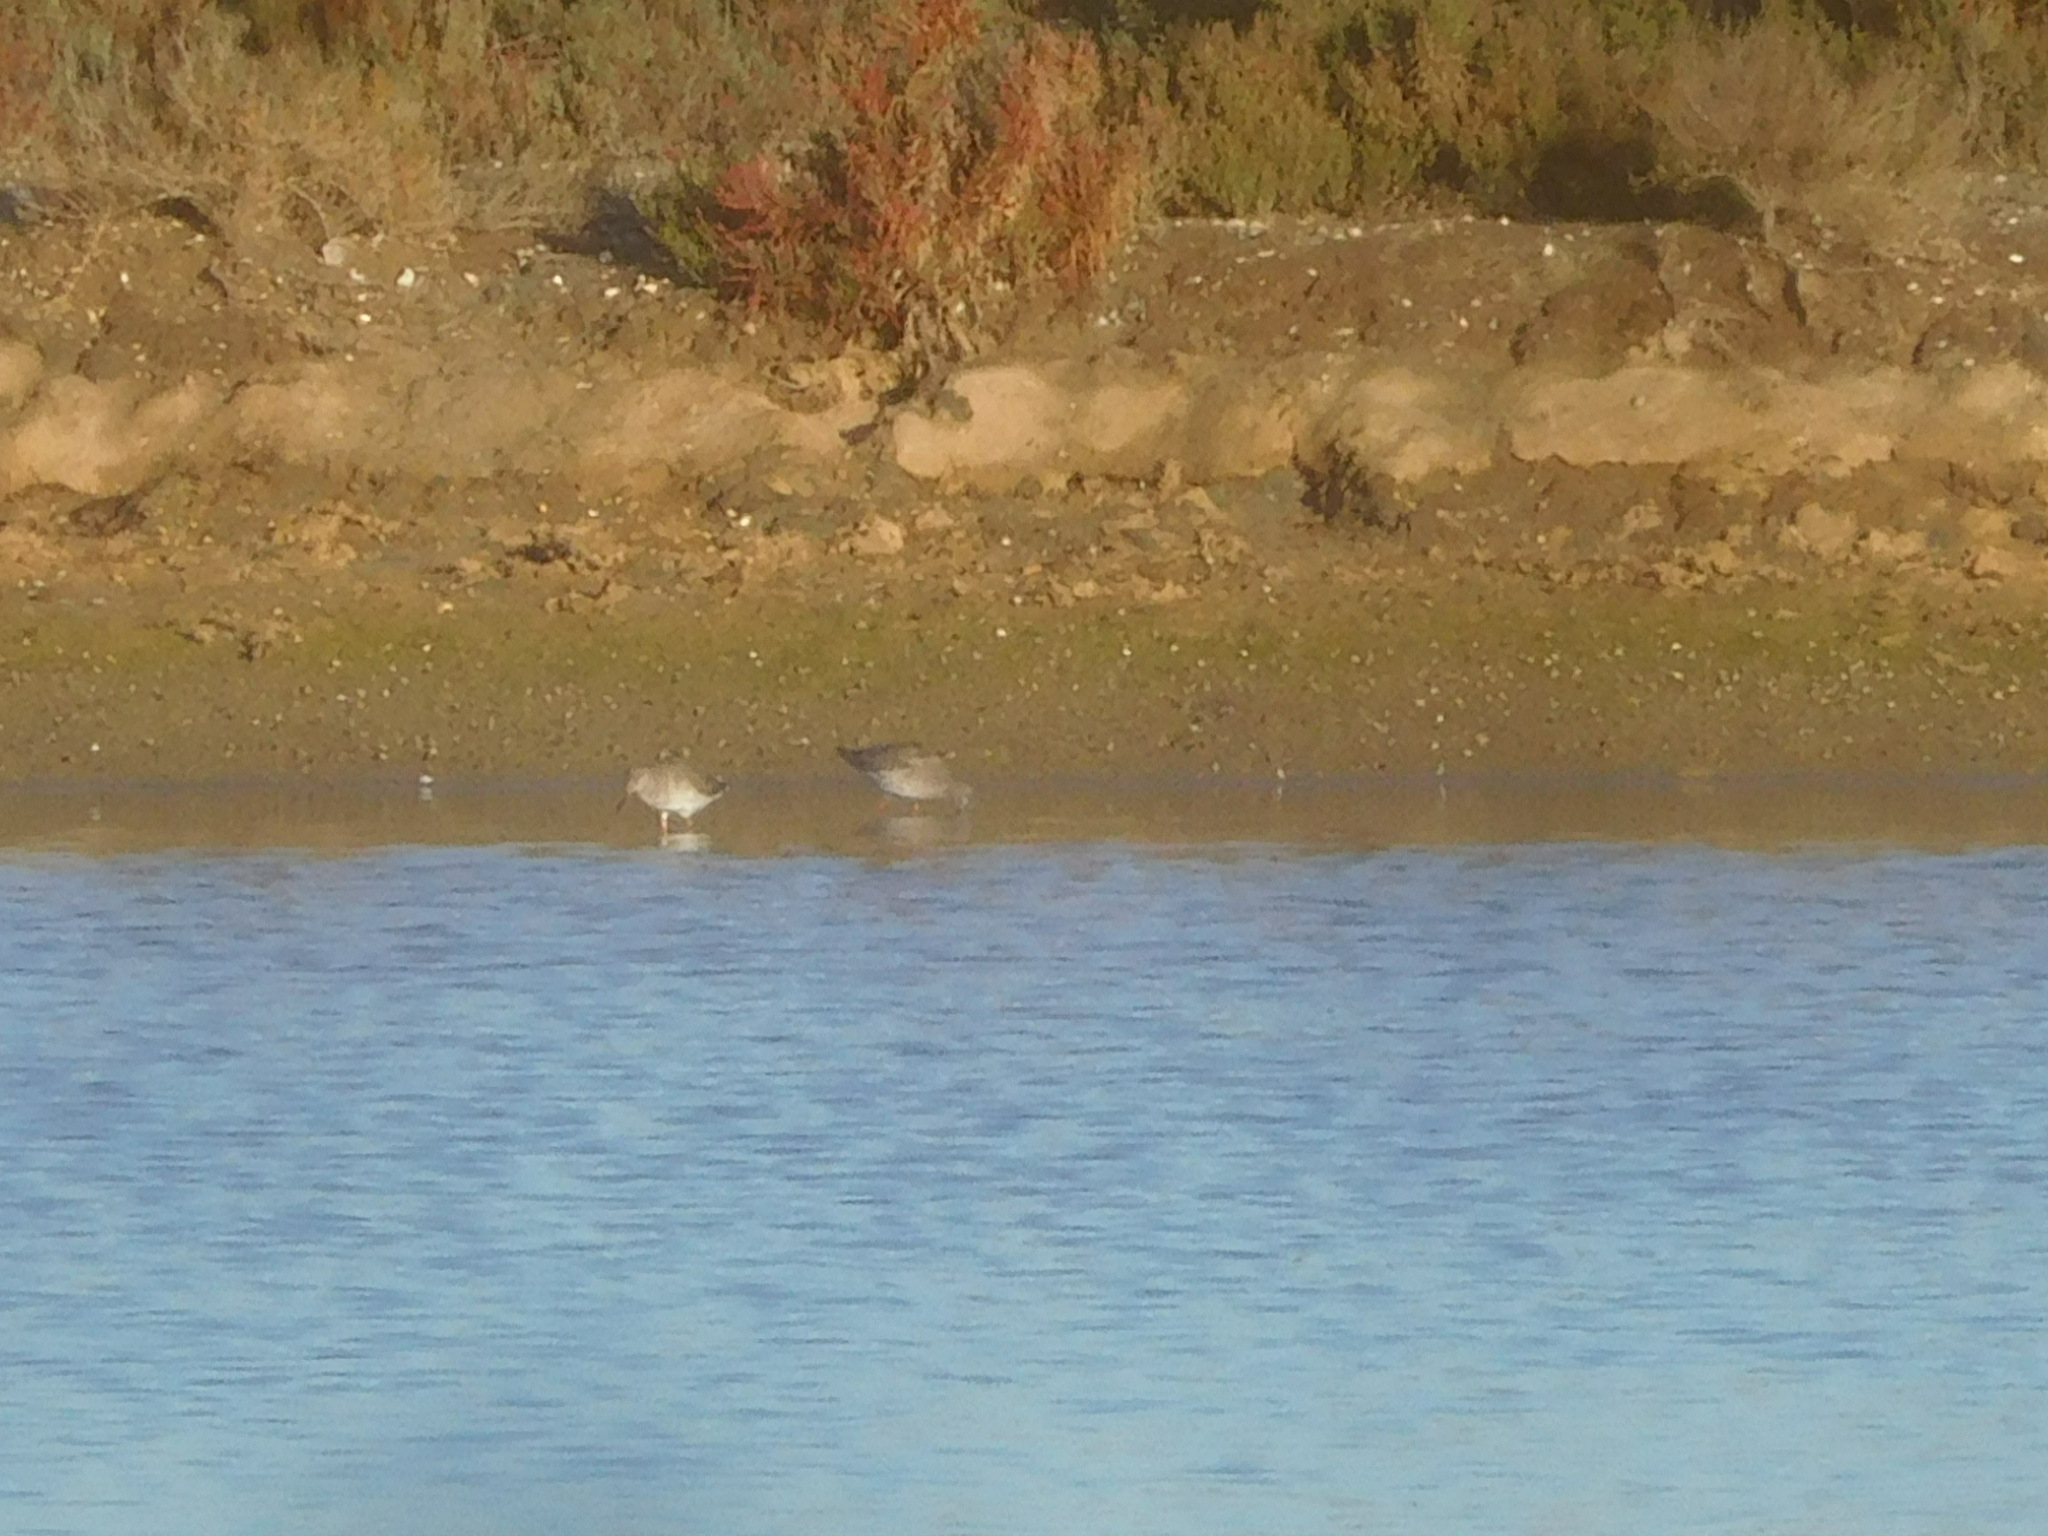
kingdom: Animalia
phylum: Chordata
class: Aves
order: Charadriiformes
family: Scolopacidae
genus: Tringa
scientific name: Tringa totanus
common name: Common redshank
